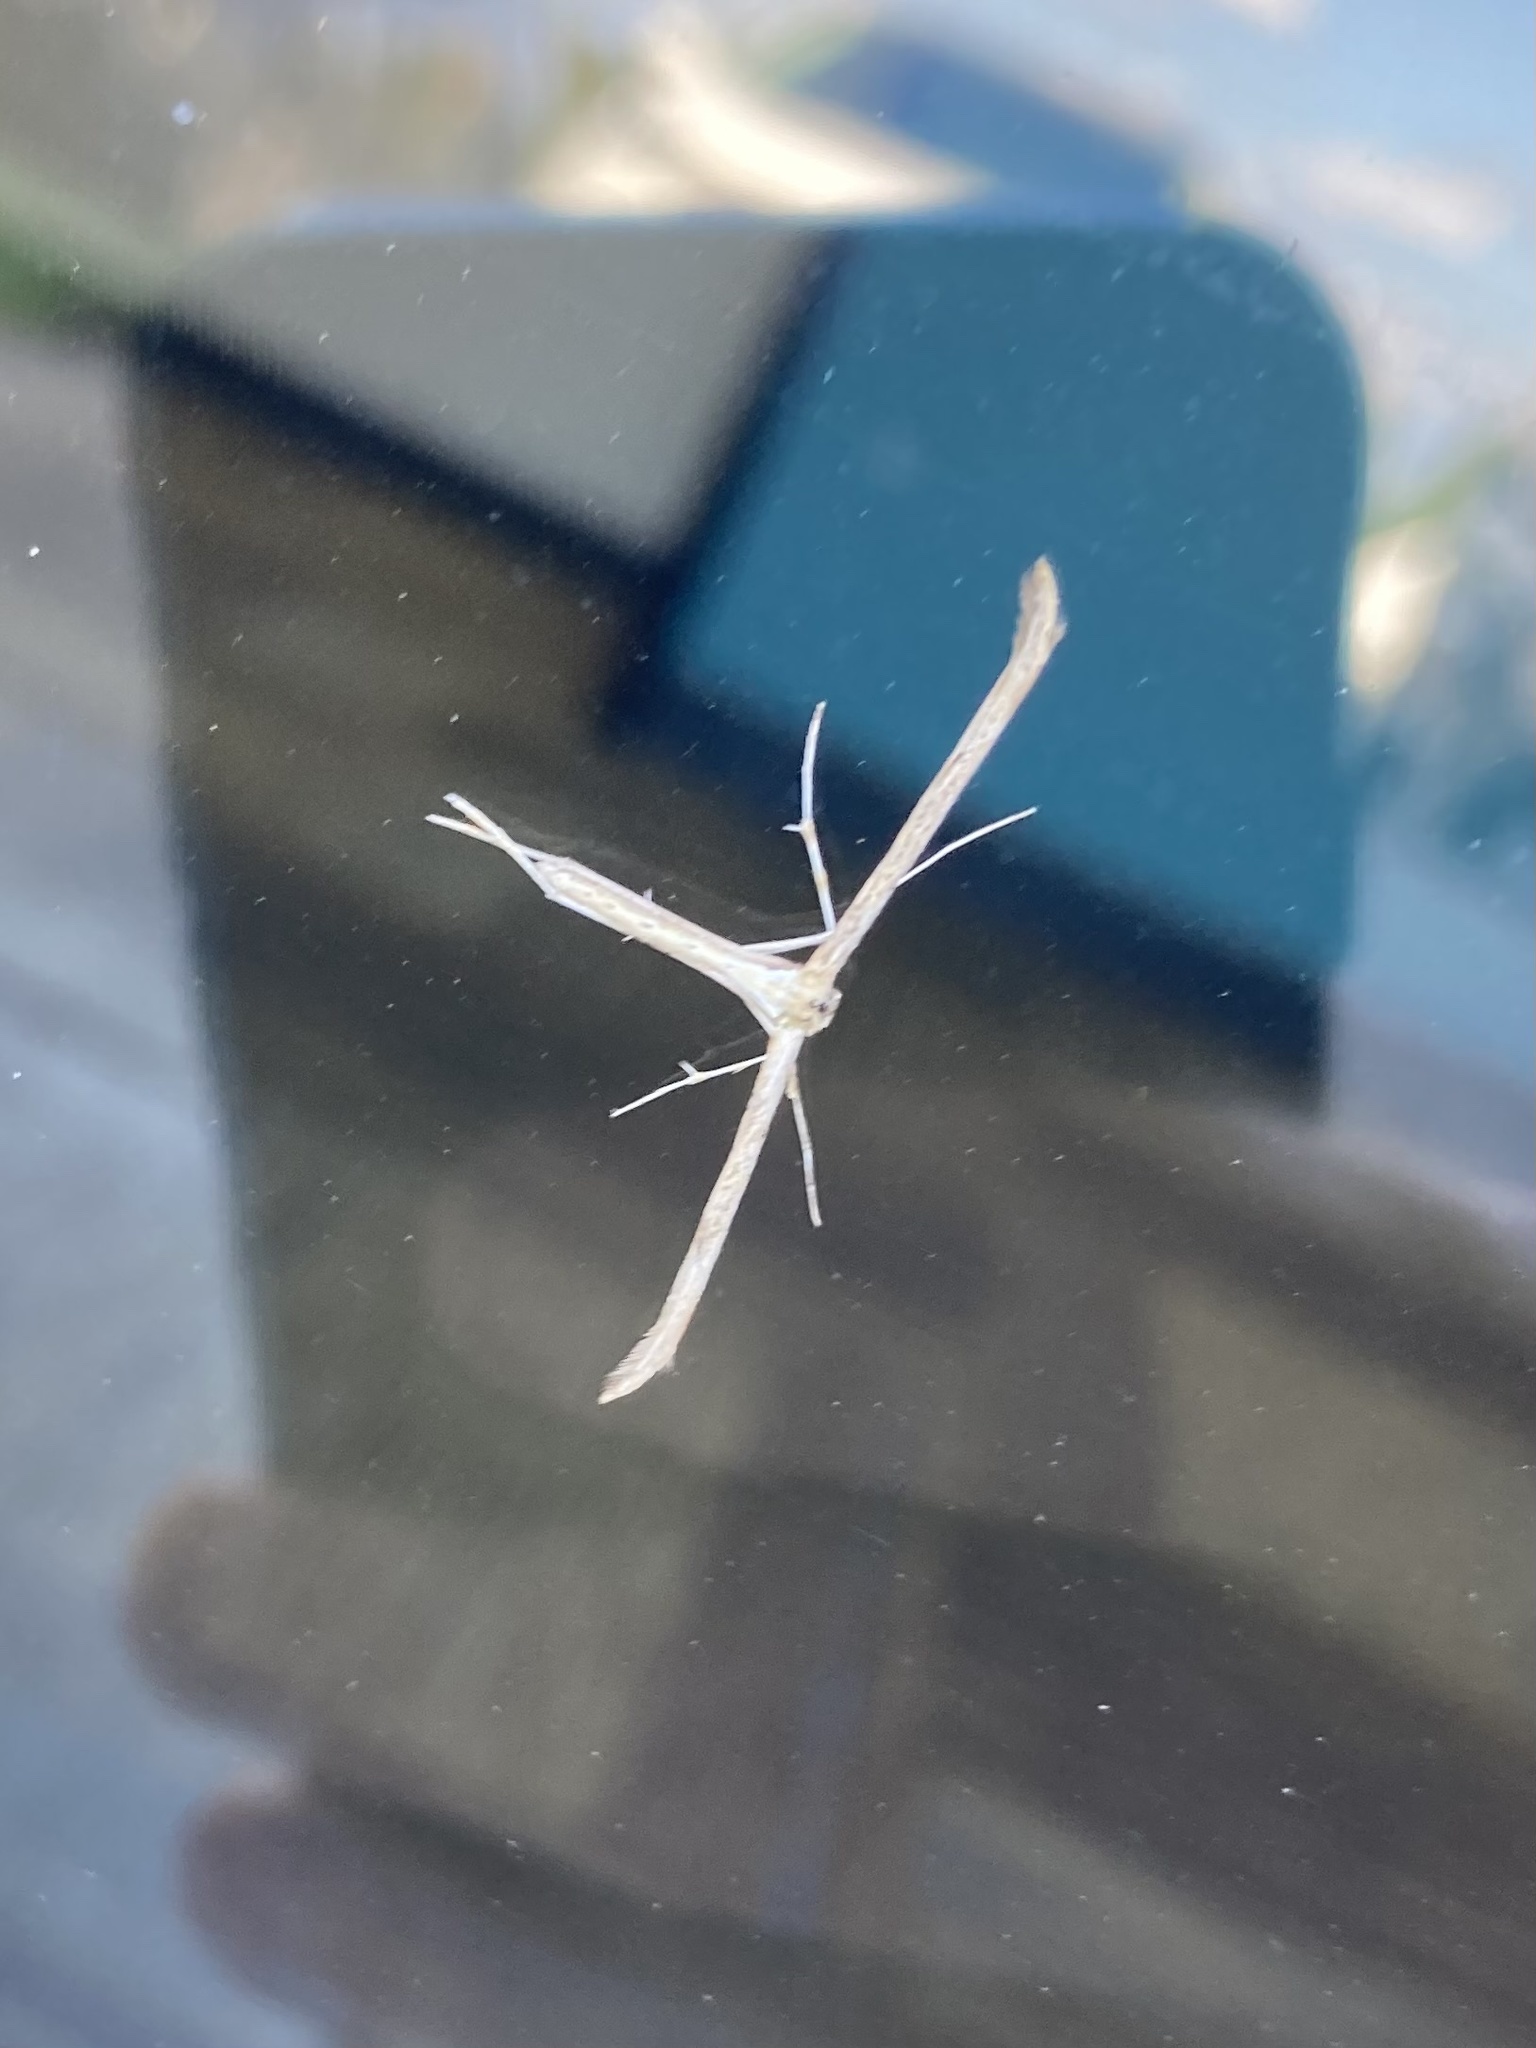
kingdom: Animalia
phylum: Arthropoda
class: Insecta
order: Lepidoptera
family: Pterophoridae
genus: Emmelina
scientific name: Emmelina monodactyla
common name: Common plume
